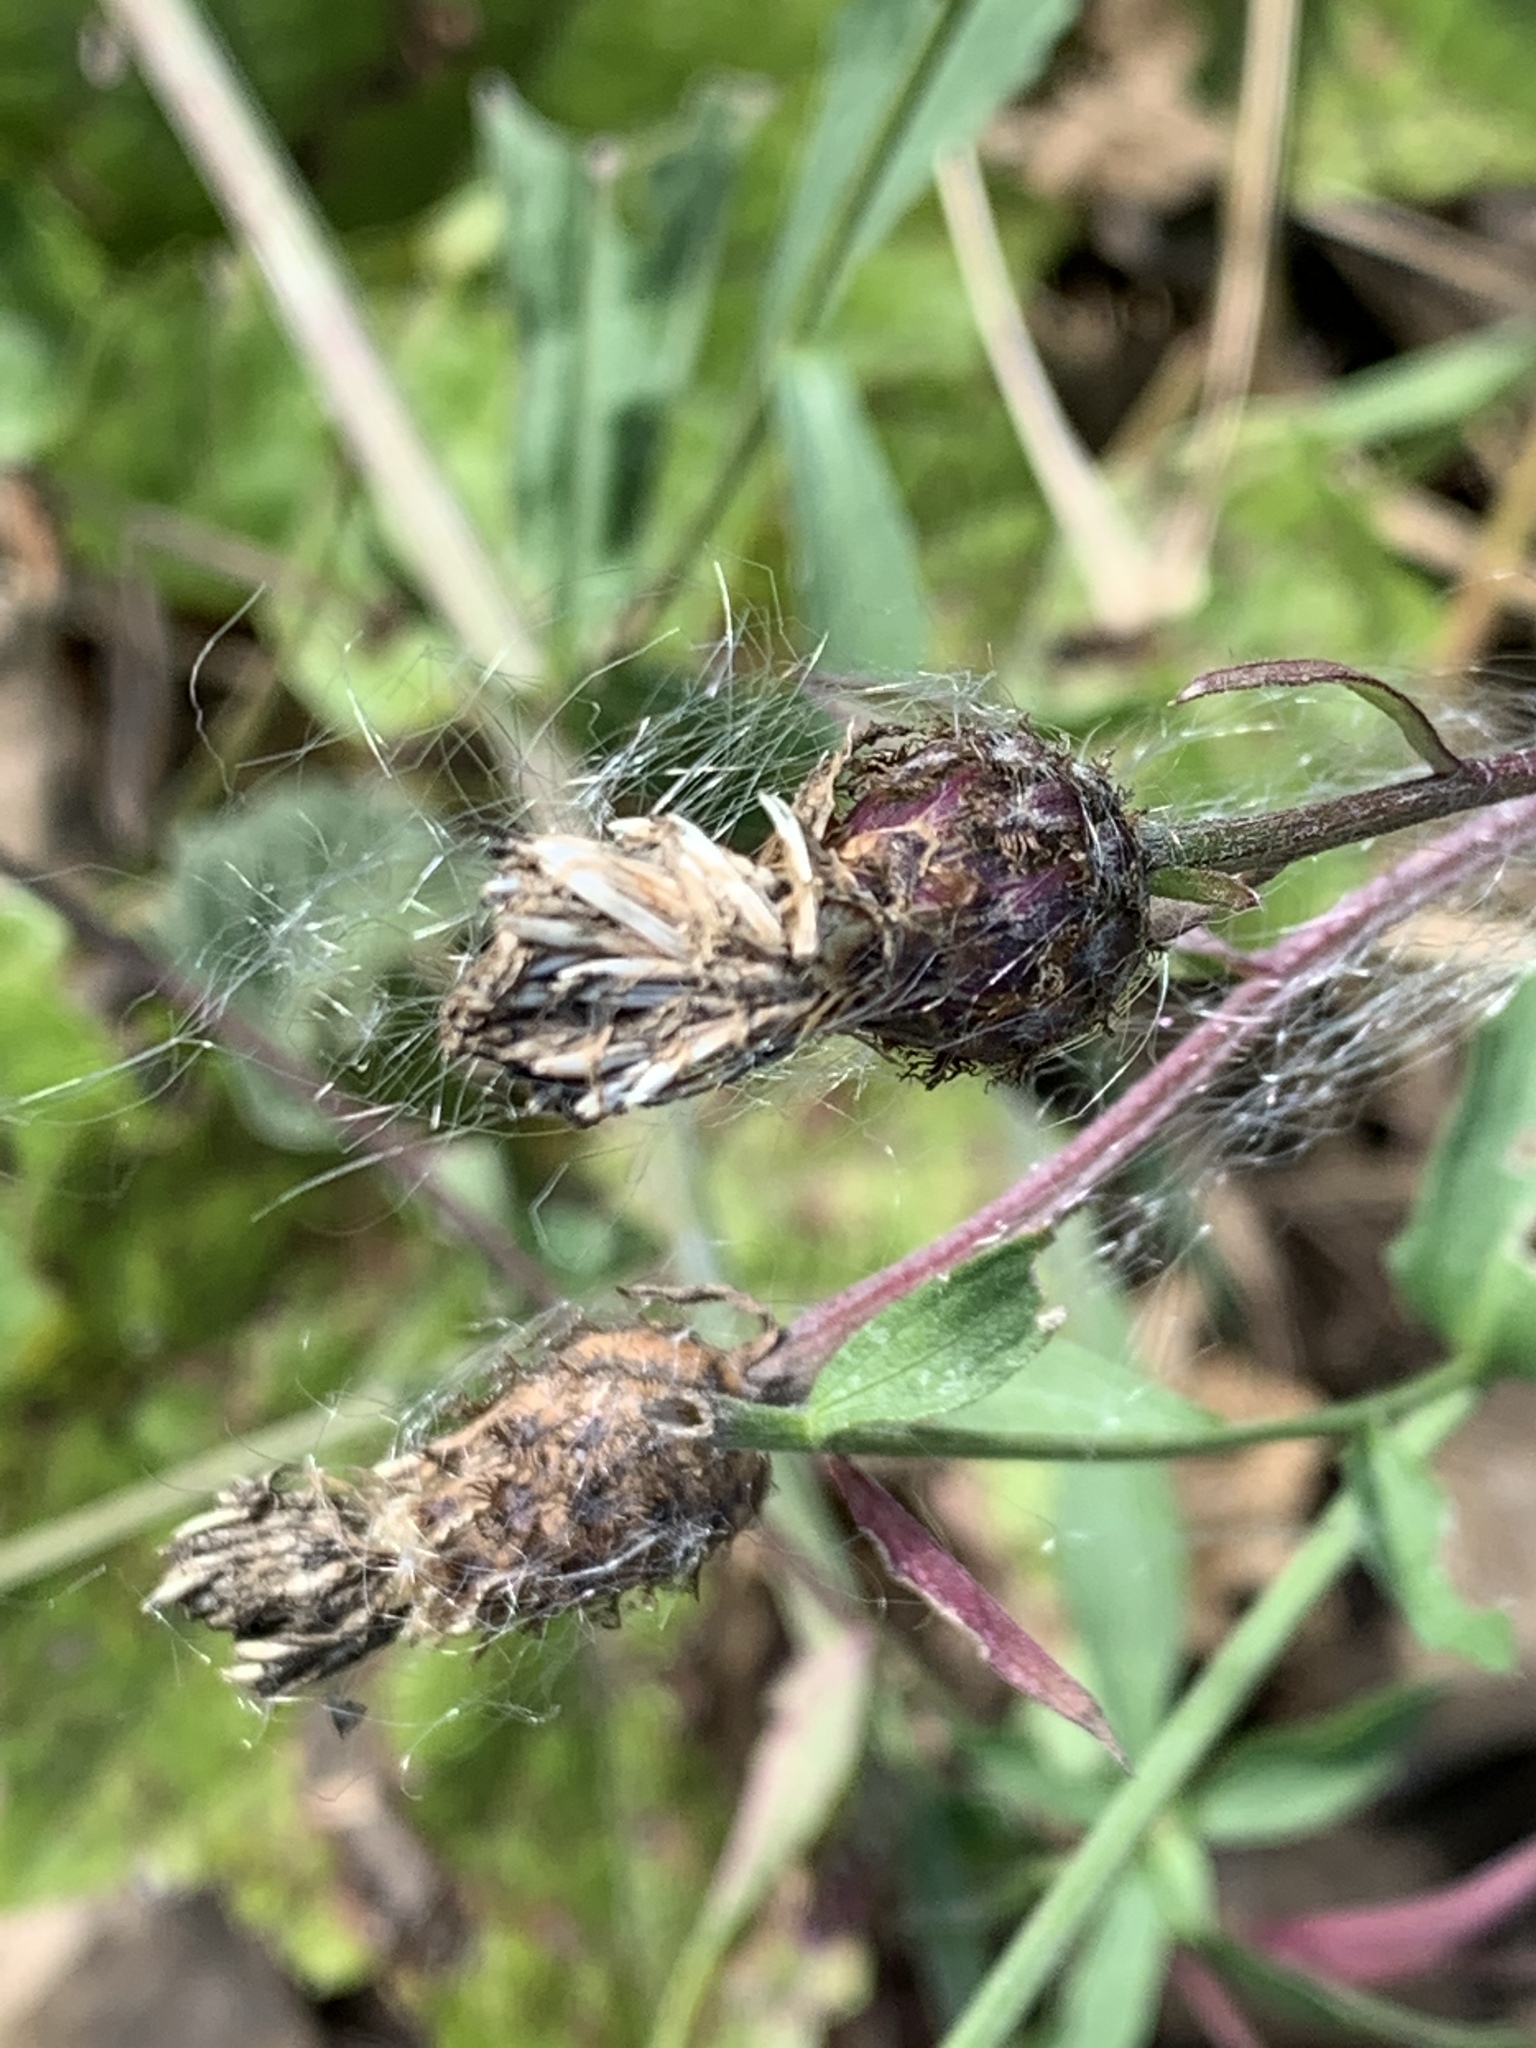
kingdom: Plantae
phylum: Tracheophyta
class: Magnoliopsida
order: Asterales
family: Asteraceae
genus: Centaurea
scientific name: Centaurea nigrescens
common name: Tyrol knapweed
